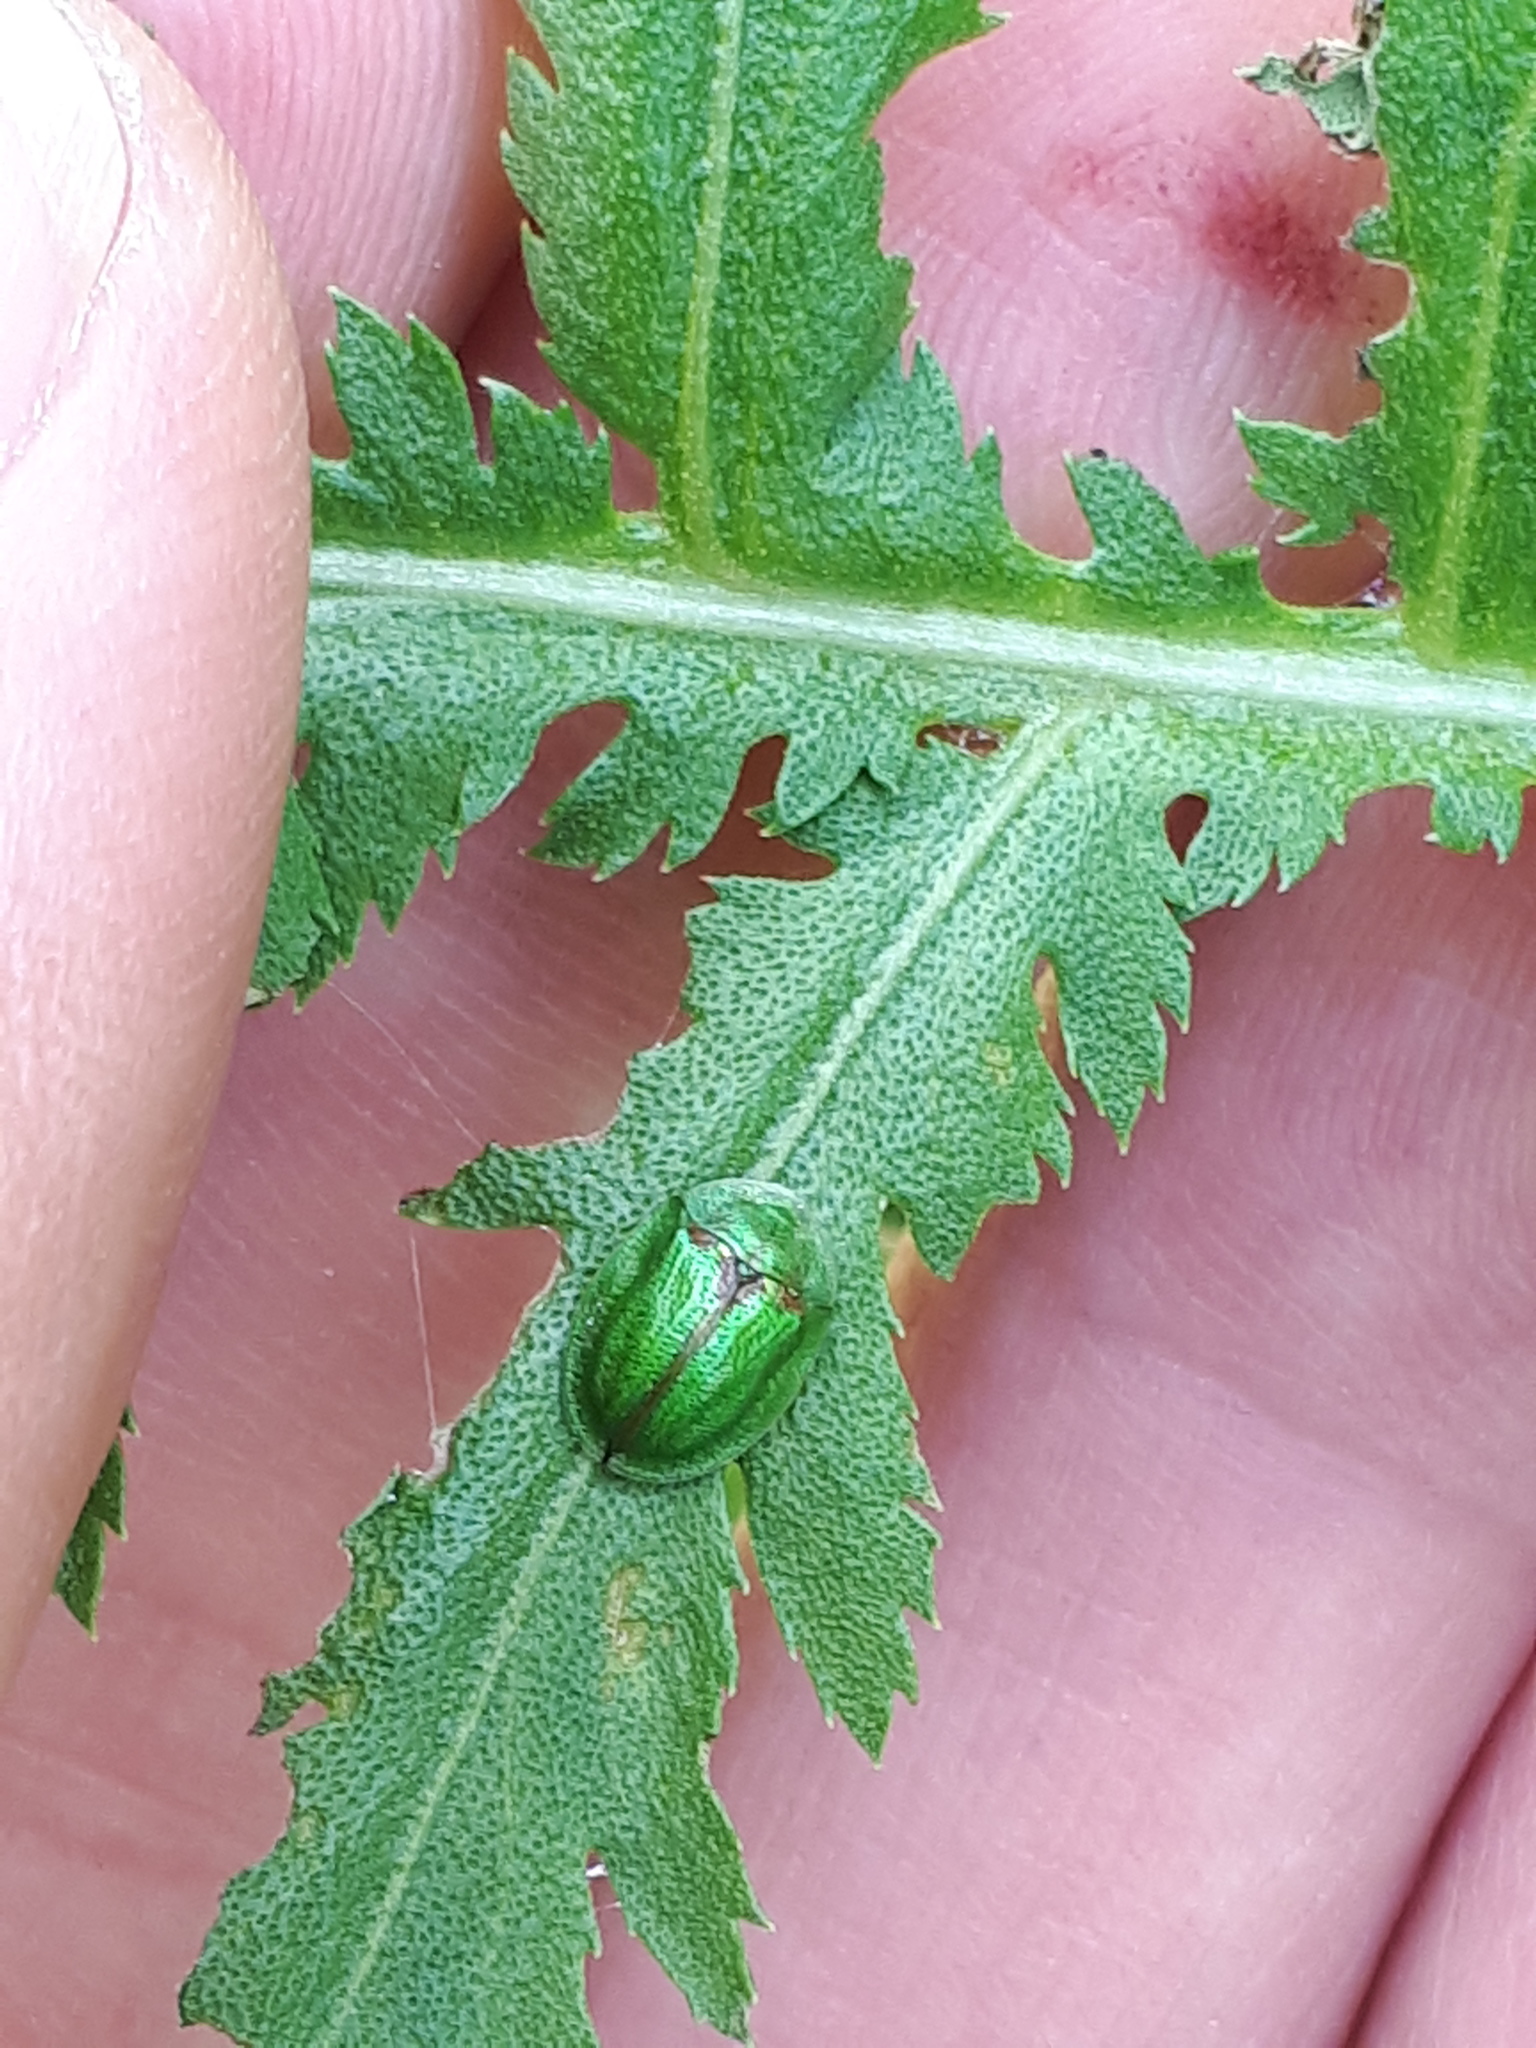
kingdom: Animalia
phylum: Arthropoda
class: Insecta
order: Coleoptera
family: Chrysomelidae
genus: Cassida
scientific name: Cassida stigmatica
